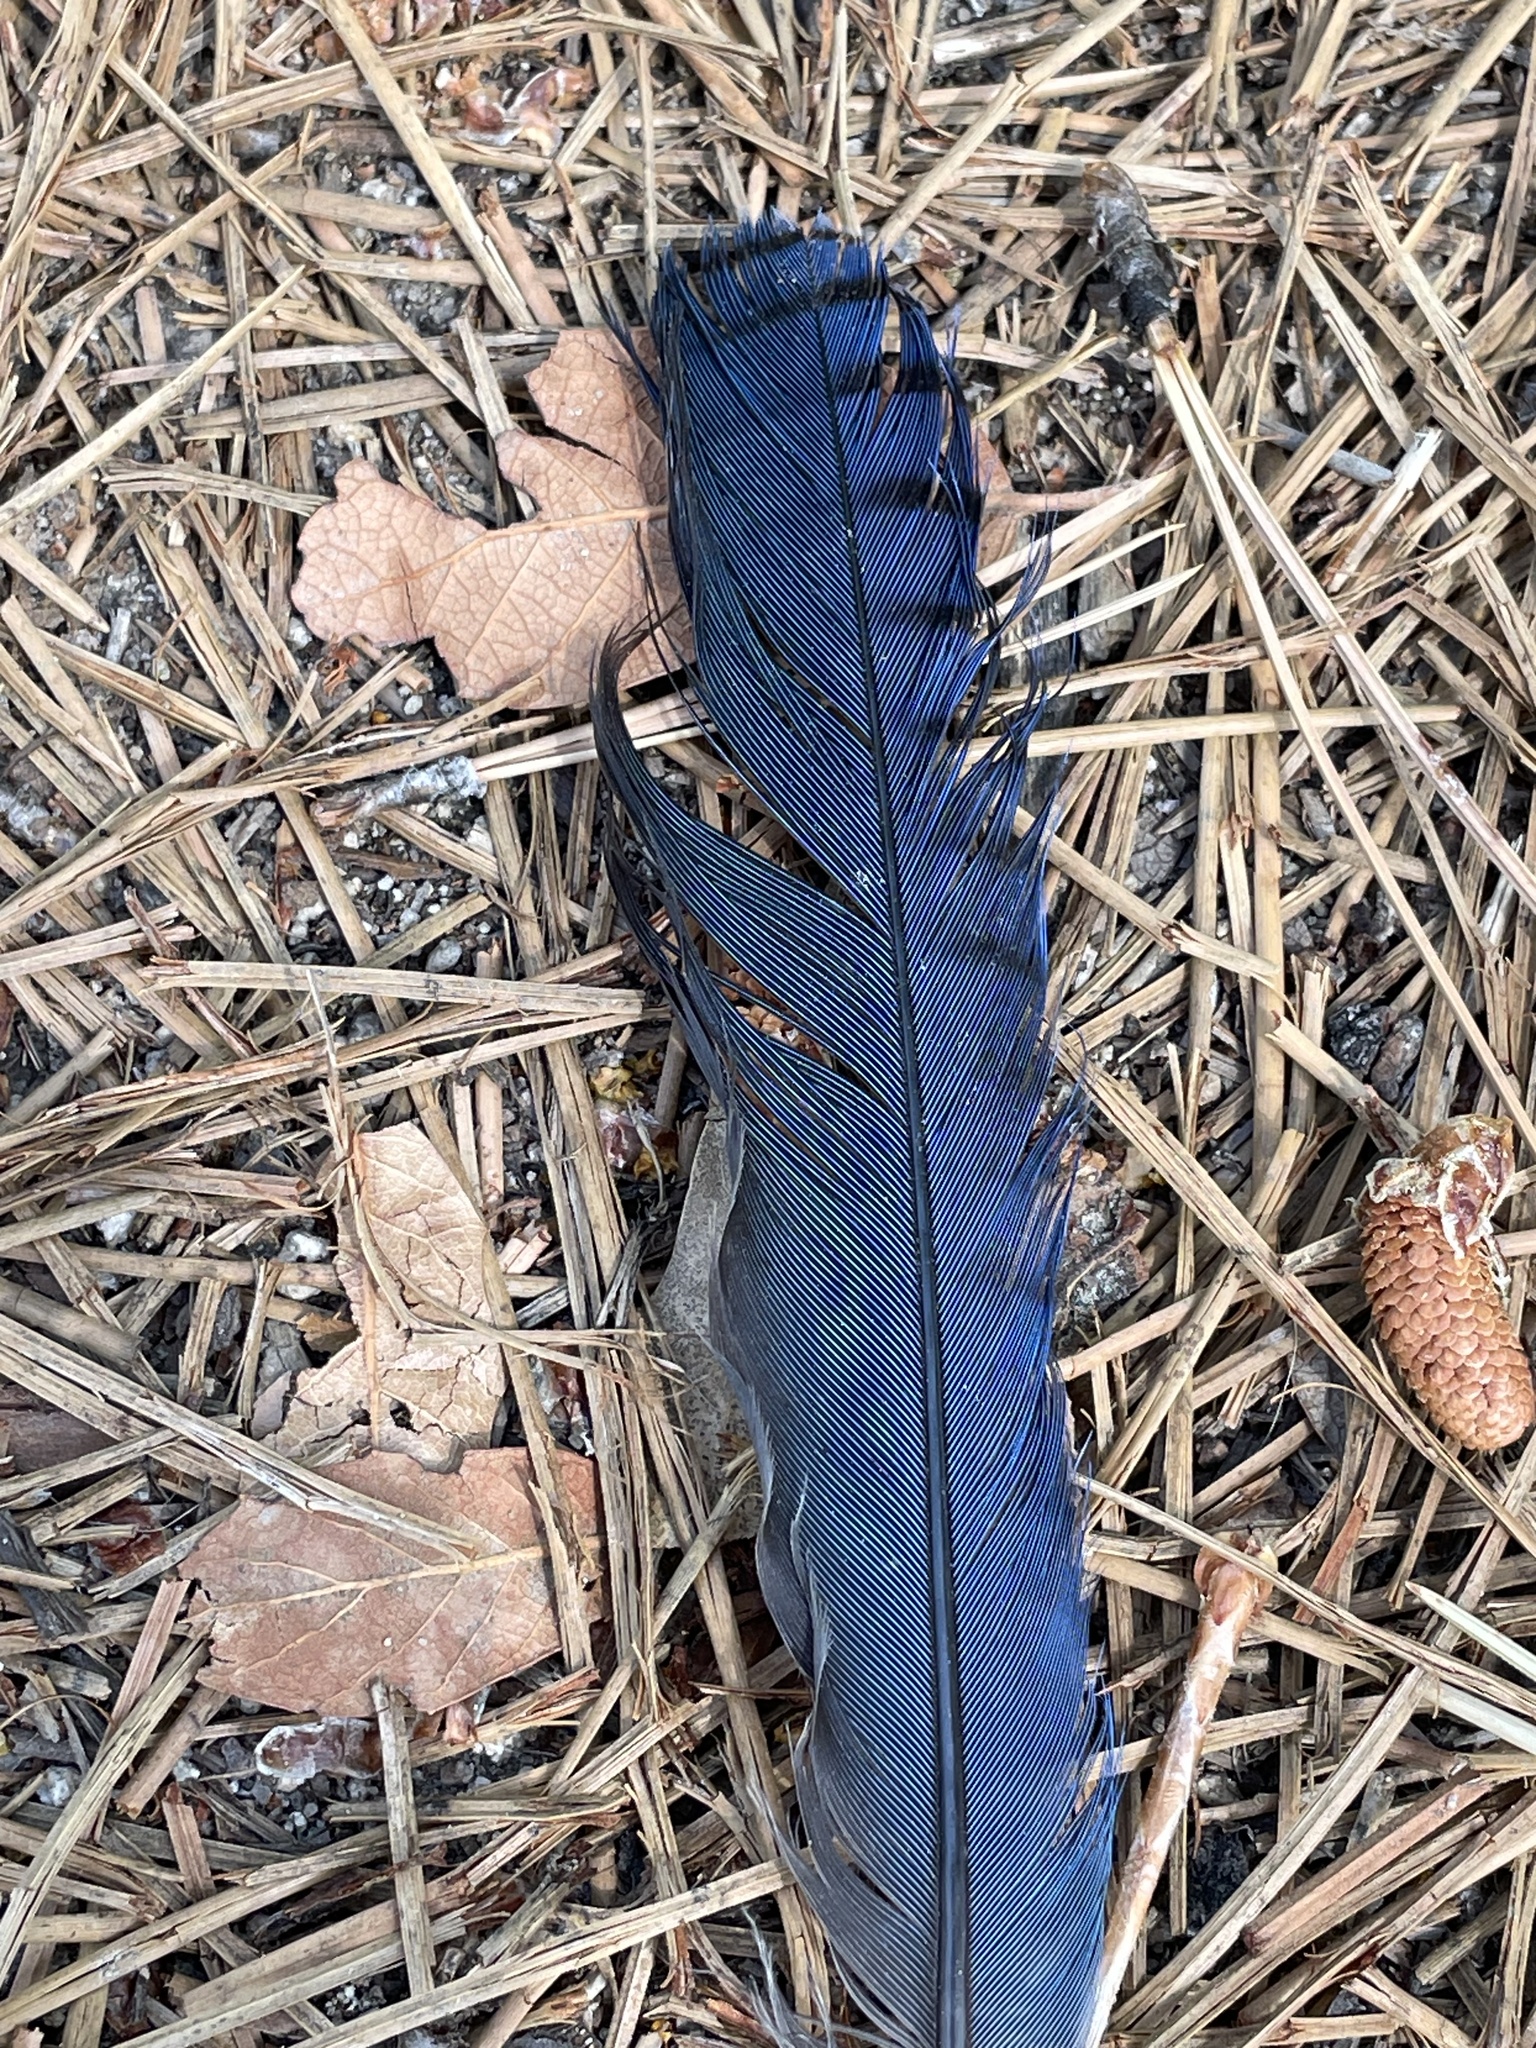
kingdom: Animalia
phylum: Chordata
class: Aves
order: Passeriformes
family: Corvidae
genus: Cyanocitta
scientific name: Cyanocitta stelleri
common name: Steller's jay
